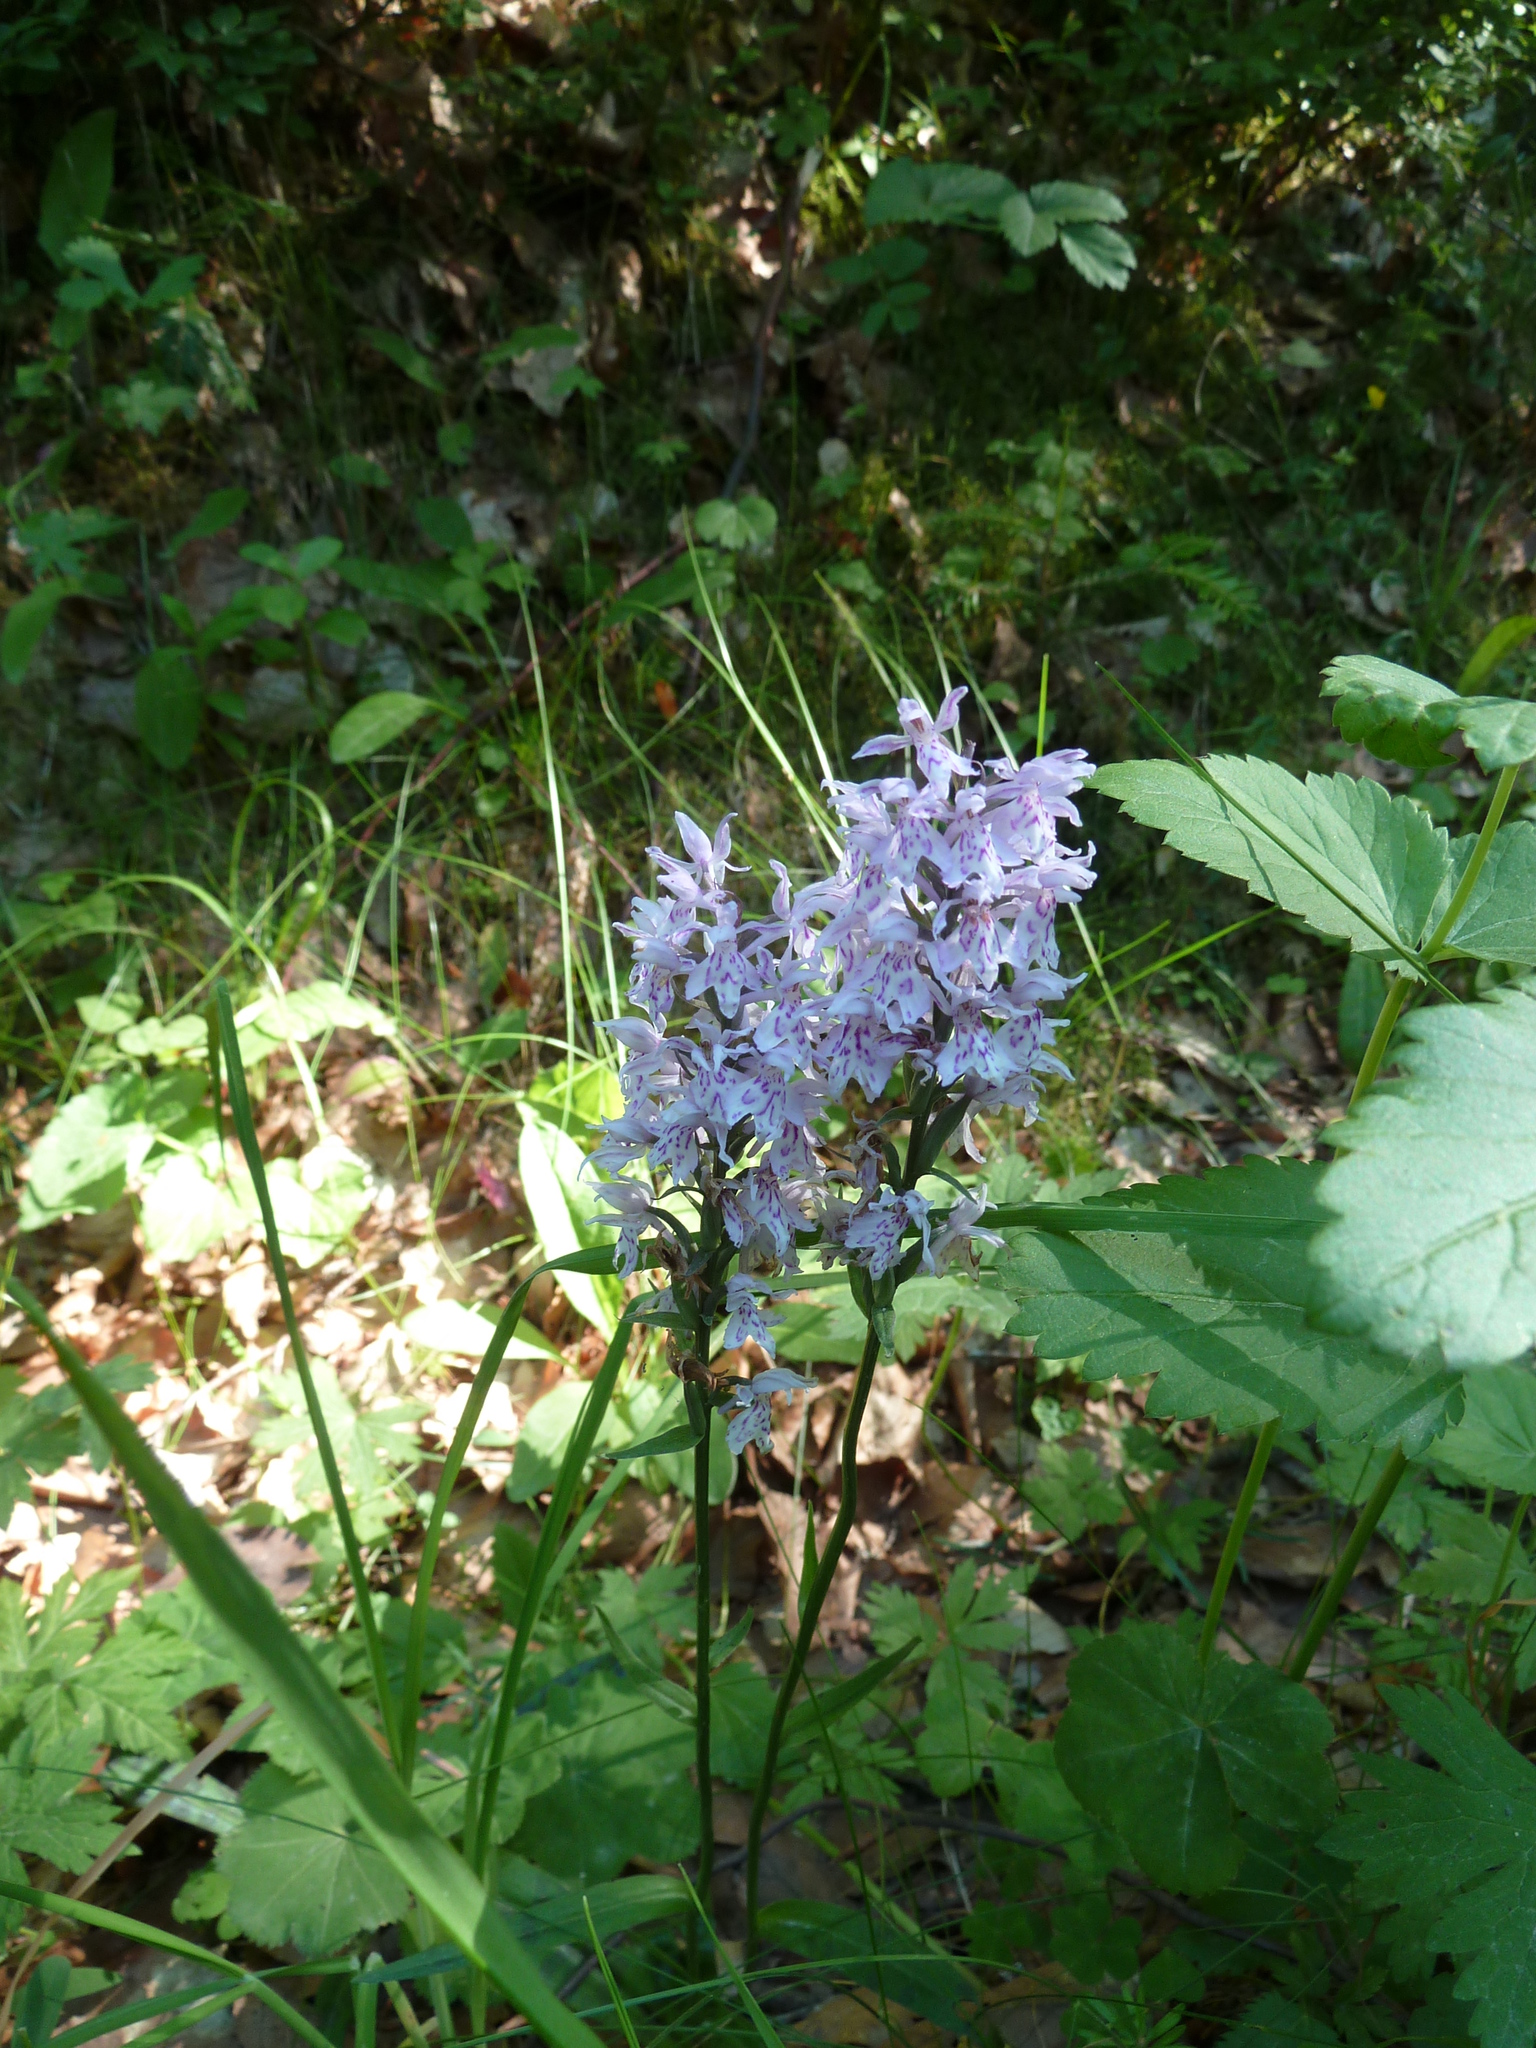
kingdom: Plantae
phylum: Tracheophyta
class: Liliopsida
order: Asparagales
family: Orchidaceae
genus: Dactylorhiza
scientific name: Dactylorhiza maculata
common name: Heath spotted-orchid
